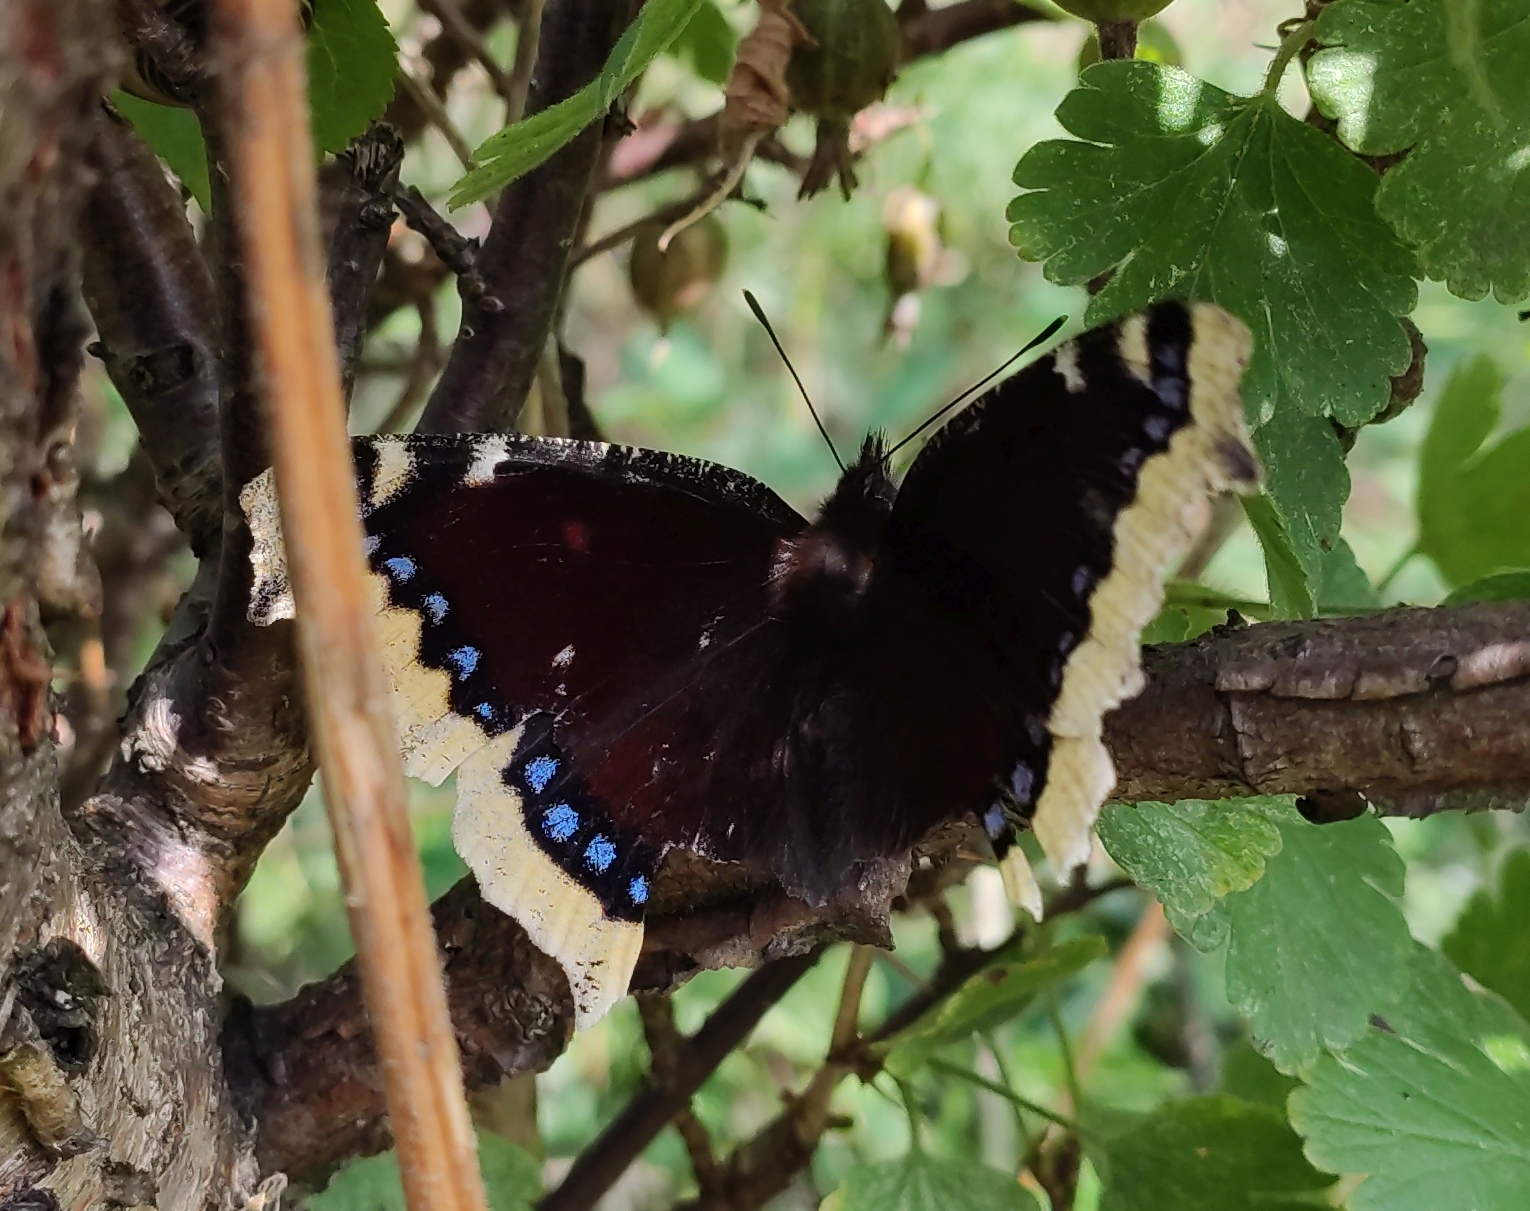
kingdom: Animalia
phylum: Arthropoda
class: Insecta
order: Lepidoptera
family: Nymphalidae
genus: Nymphalis
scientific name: Nymphalis antiopa
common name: Camberwell beauty
